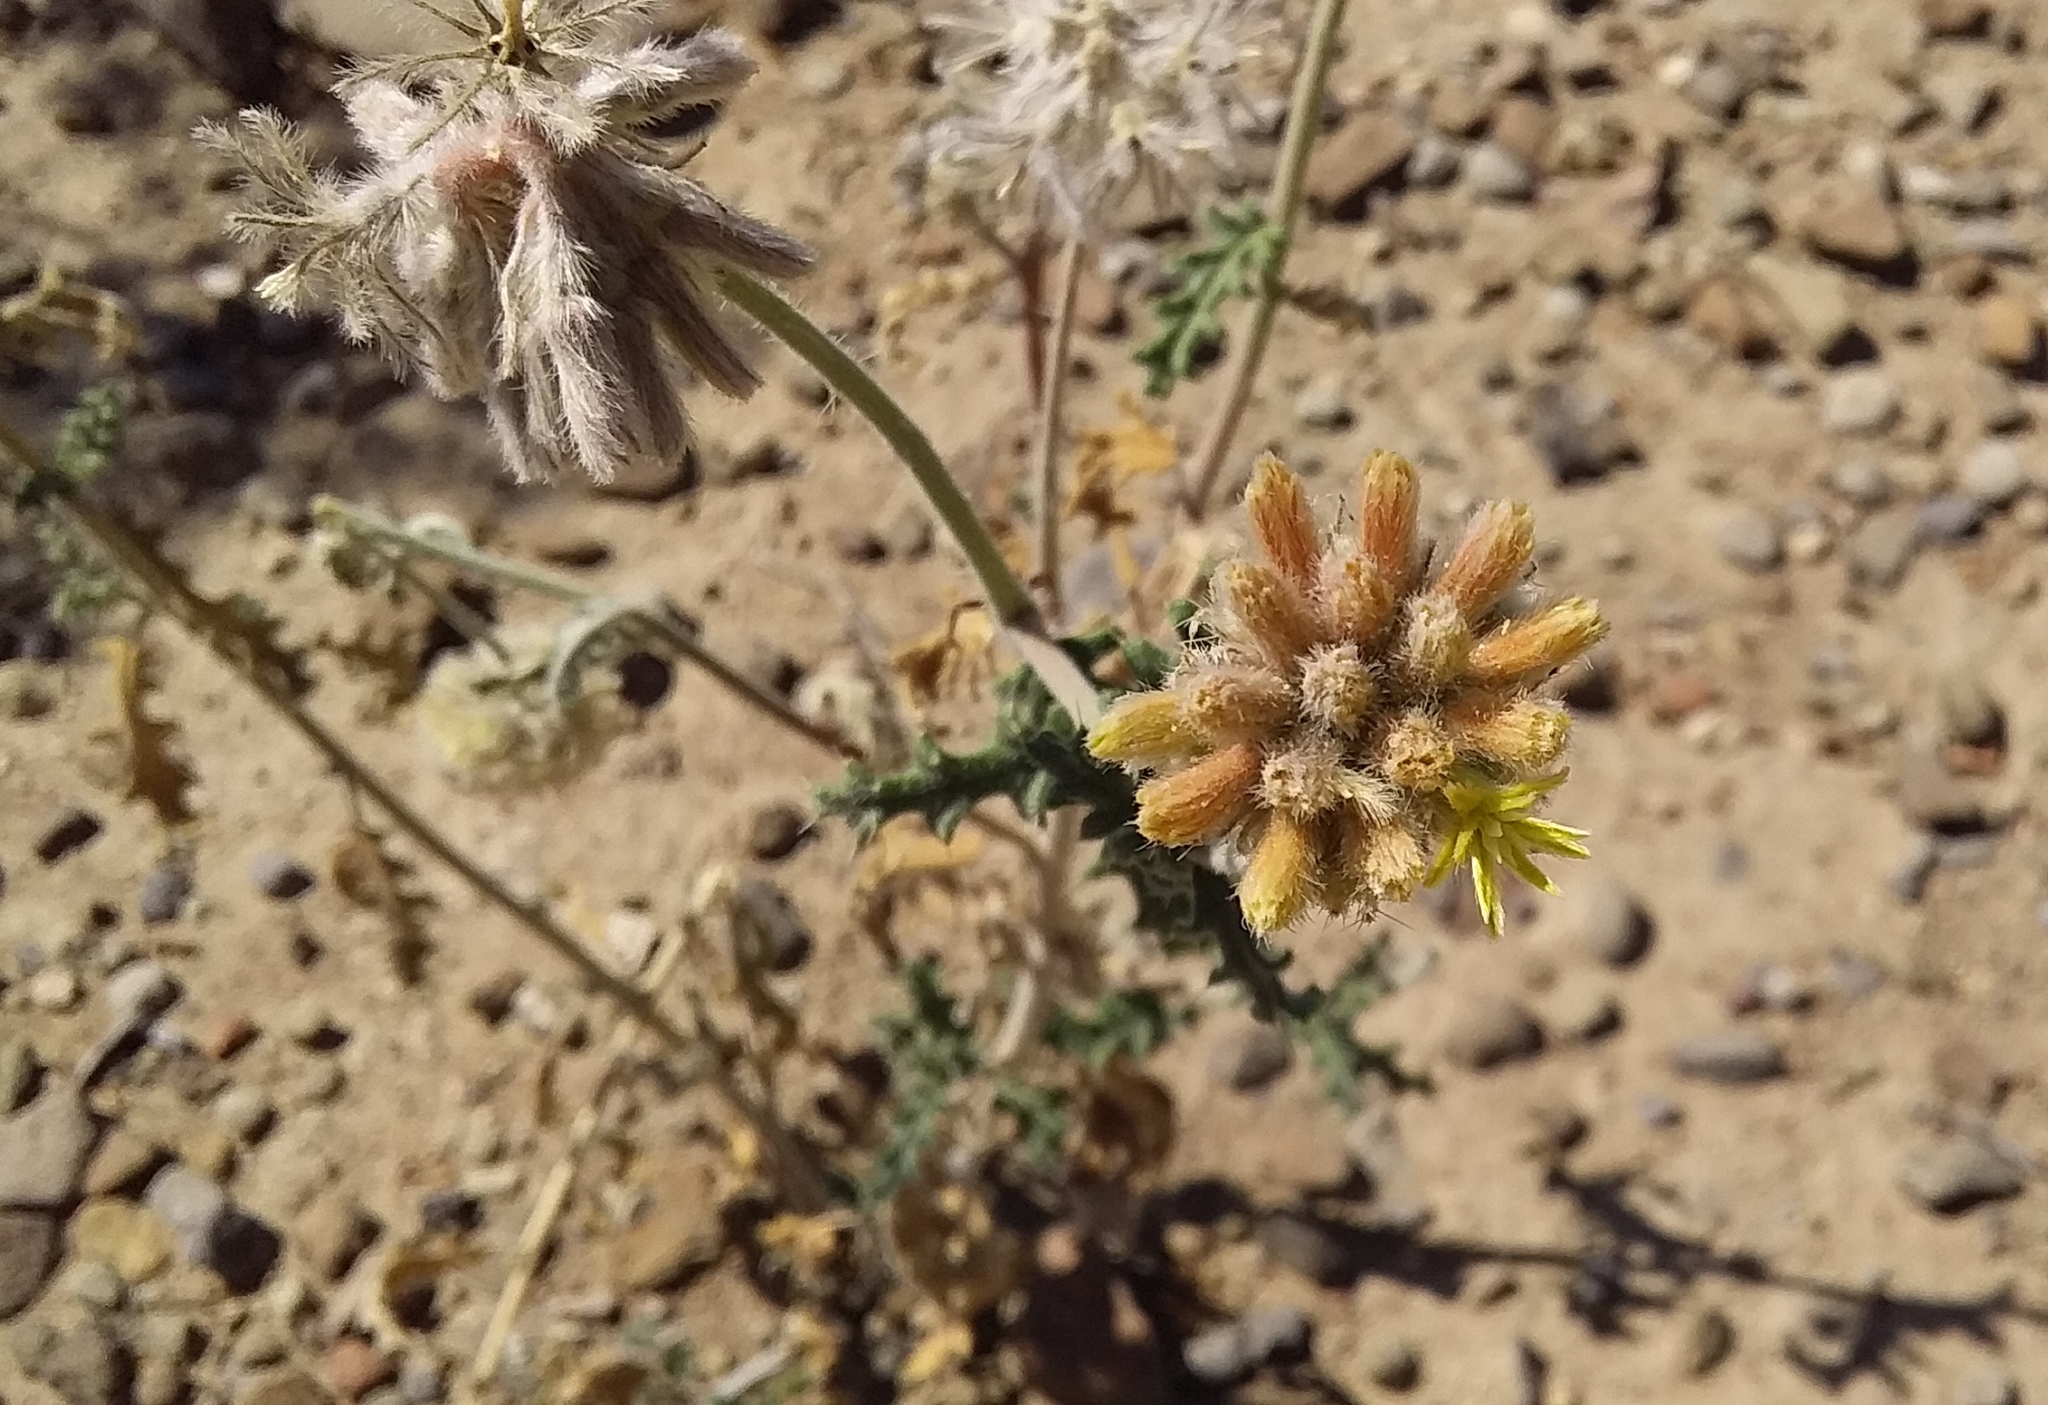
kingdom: Plantae
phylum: Tracheophyta
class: Magnoliopsida
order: Cornales
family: Loasaceae
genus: Cevallia
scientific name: Cevallia sinuata
